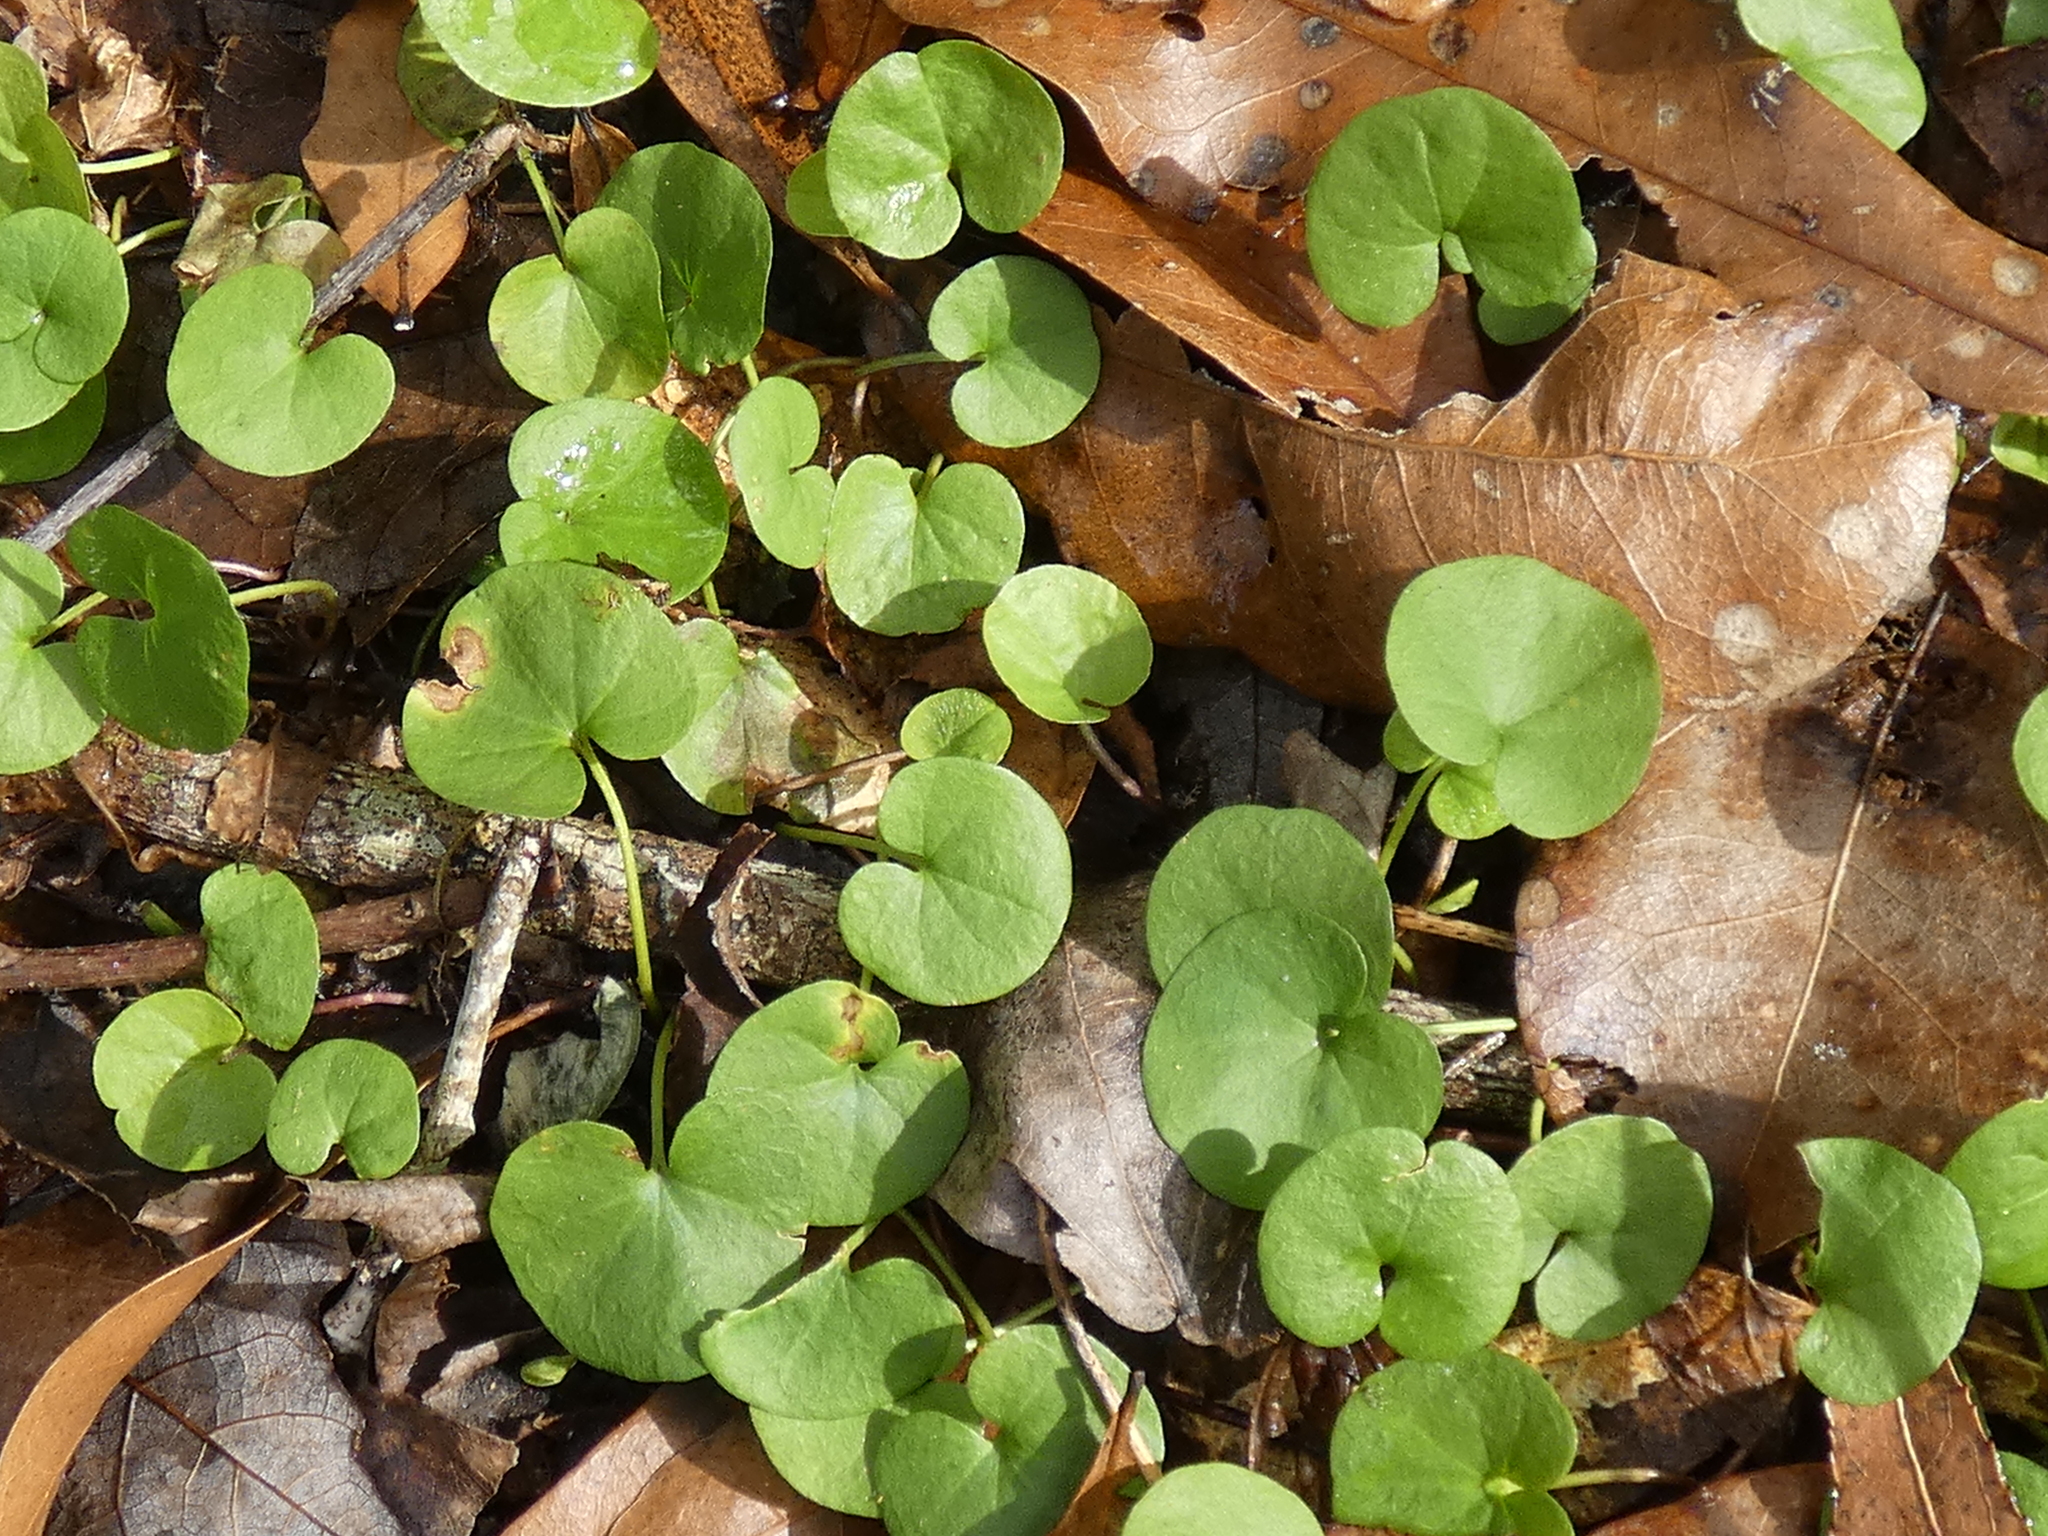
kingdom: Plantae
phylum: Tracheophyta
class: Magnoliopsida
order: Solanales
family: Convolvulaceae
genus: Dichondra
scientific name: Dichondra carolinensis
